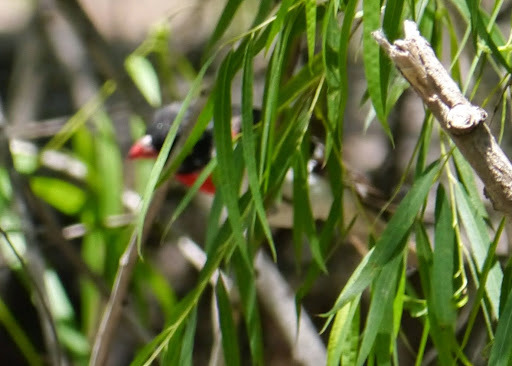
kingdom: Animalia
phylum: Chordata
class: Aves
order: Passeriformes
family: Cardinalidae
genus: Pheucticus
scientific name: Pheucticus ludovicianus
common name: Rose-breasted grosbeak
